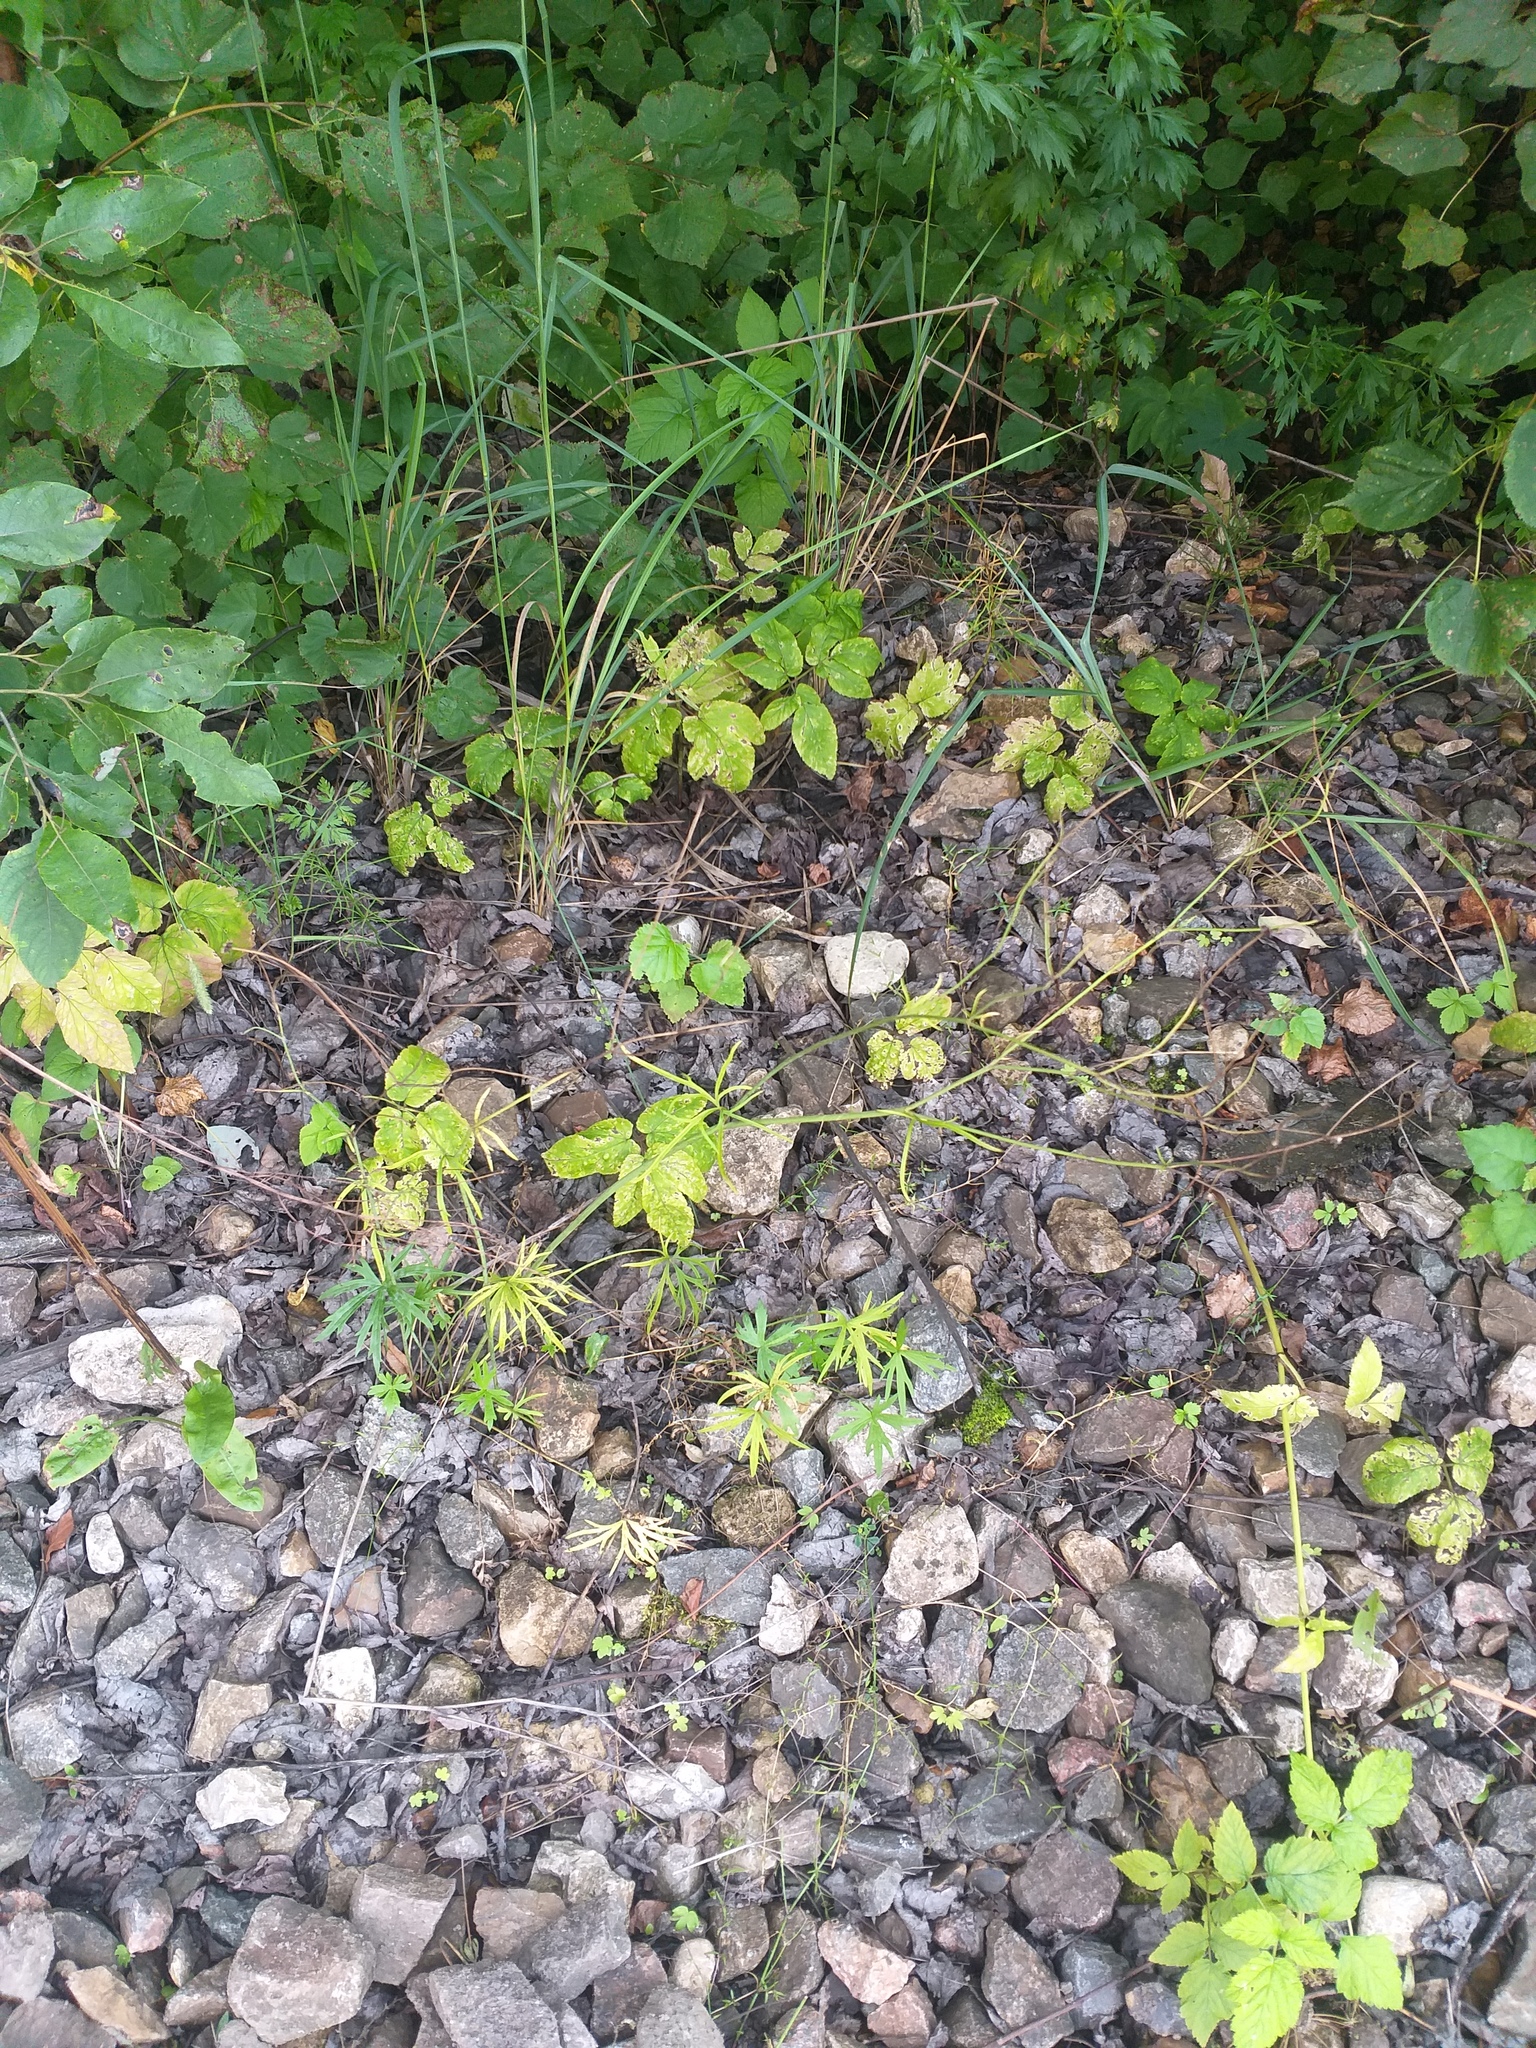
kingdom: Plantae
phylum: Tracheophyta
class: Magnoliopsida
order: Ranunculales
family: Ranunculaceae
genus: Ranunculus
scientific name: Ranunculus acris
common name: Meadow buttercup
